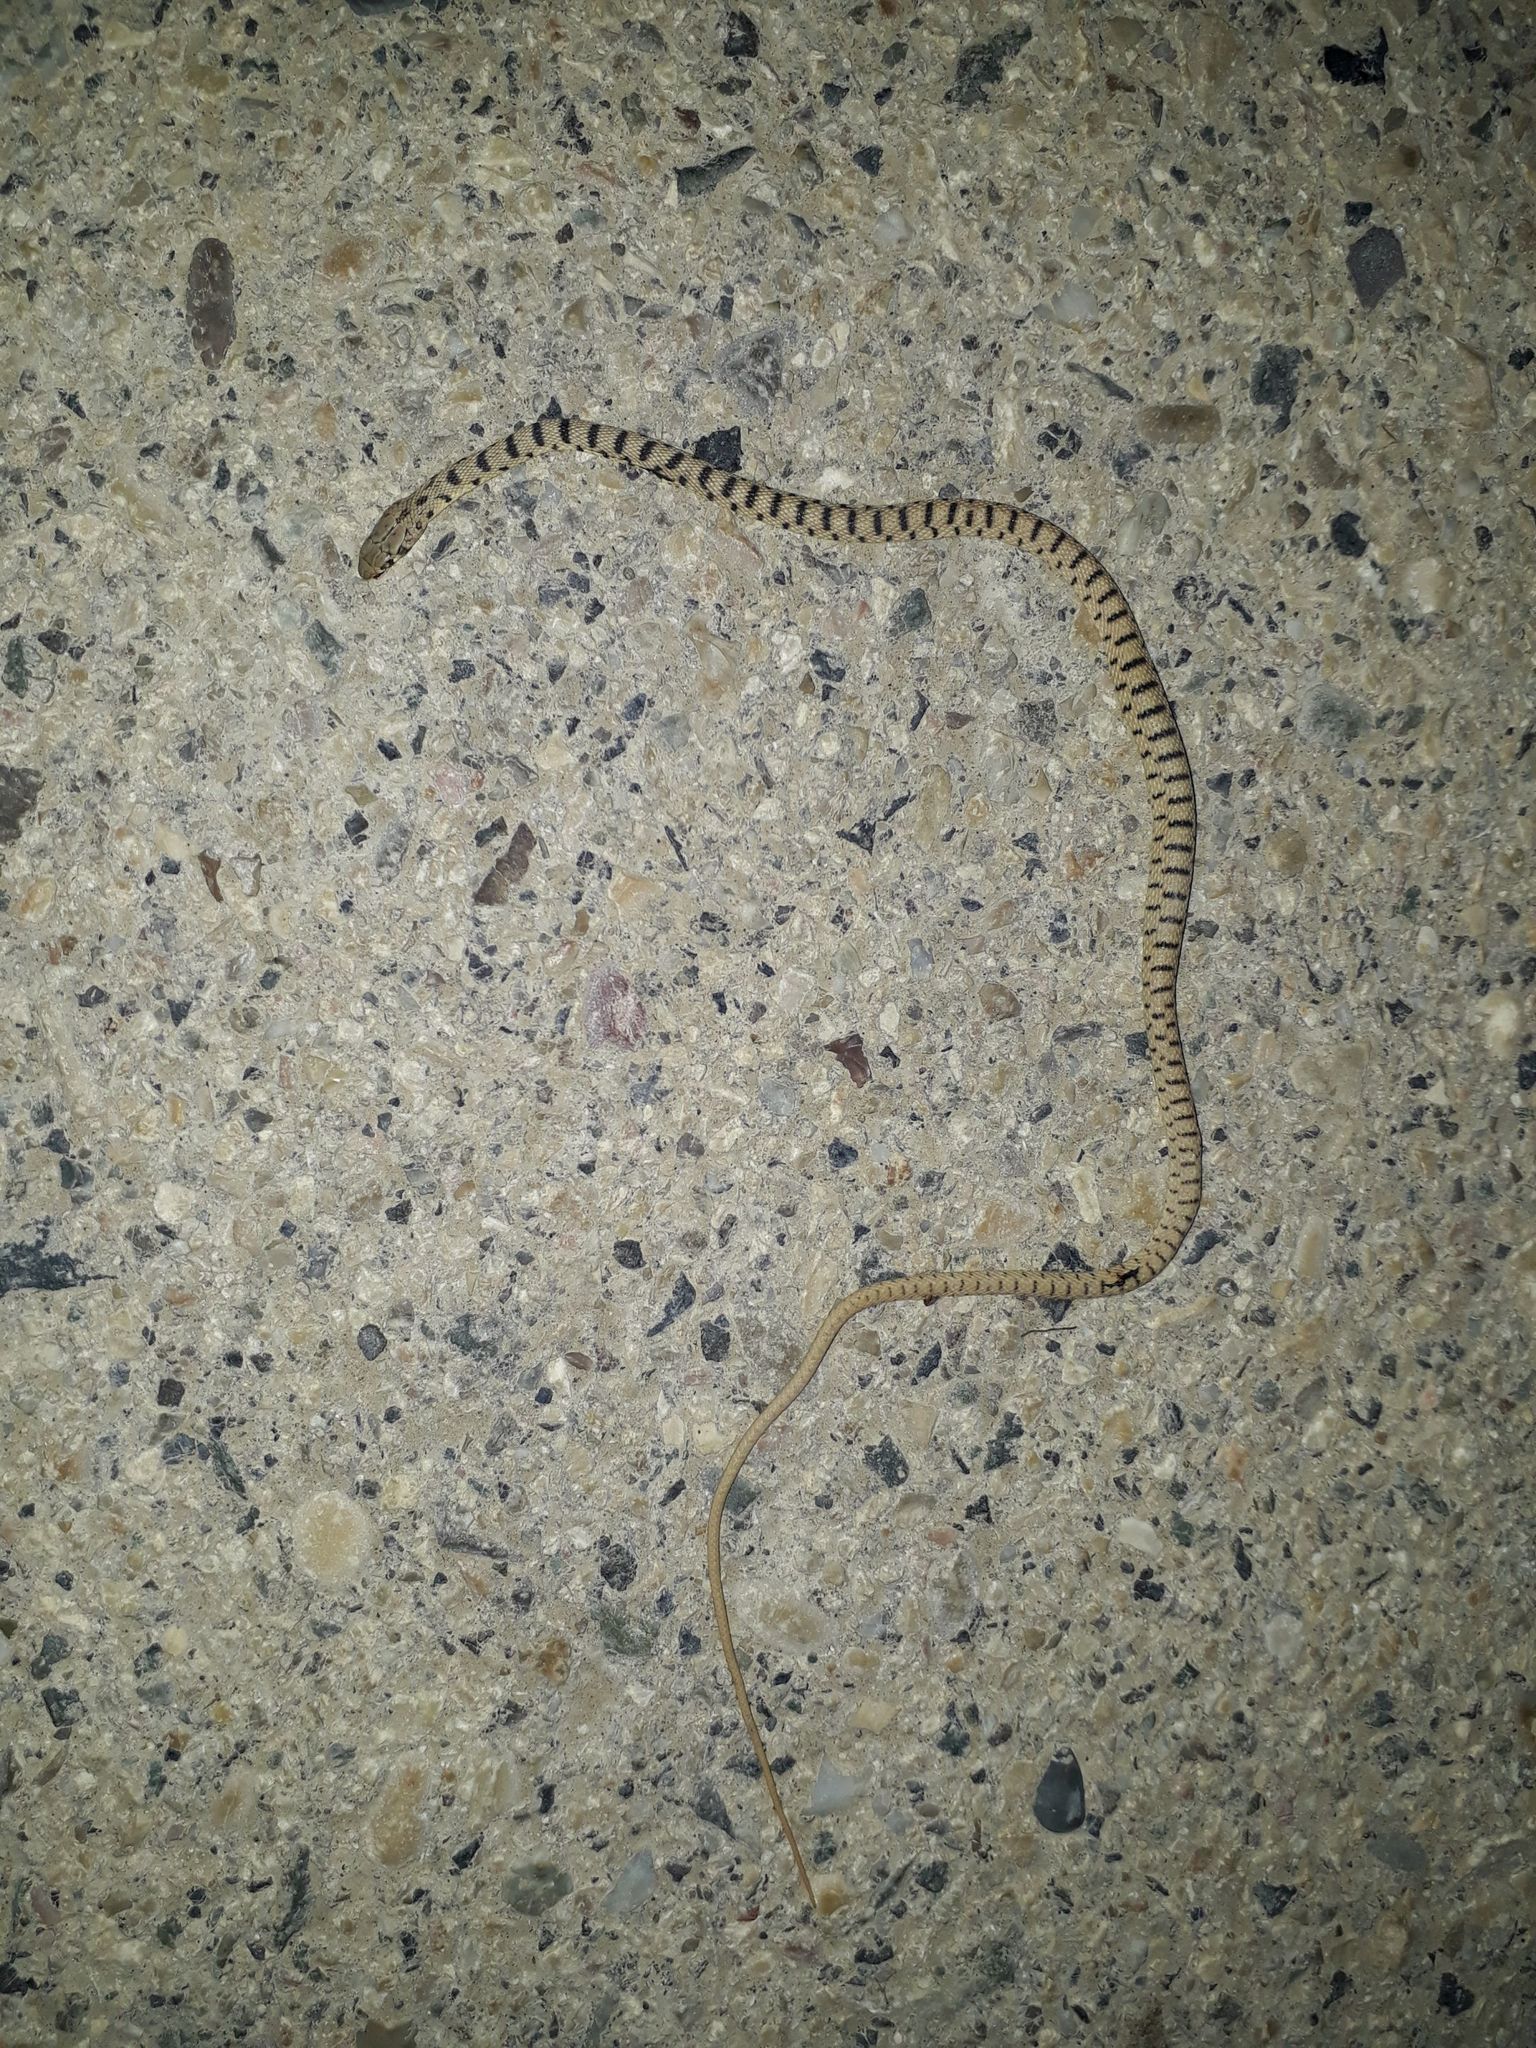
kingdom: Animalia
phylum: Chordata
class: Squamata
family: Colubridae
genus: Platyceps
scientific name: Platyceps karelini
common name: Spotted desert racer
